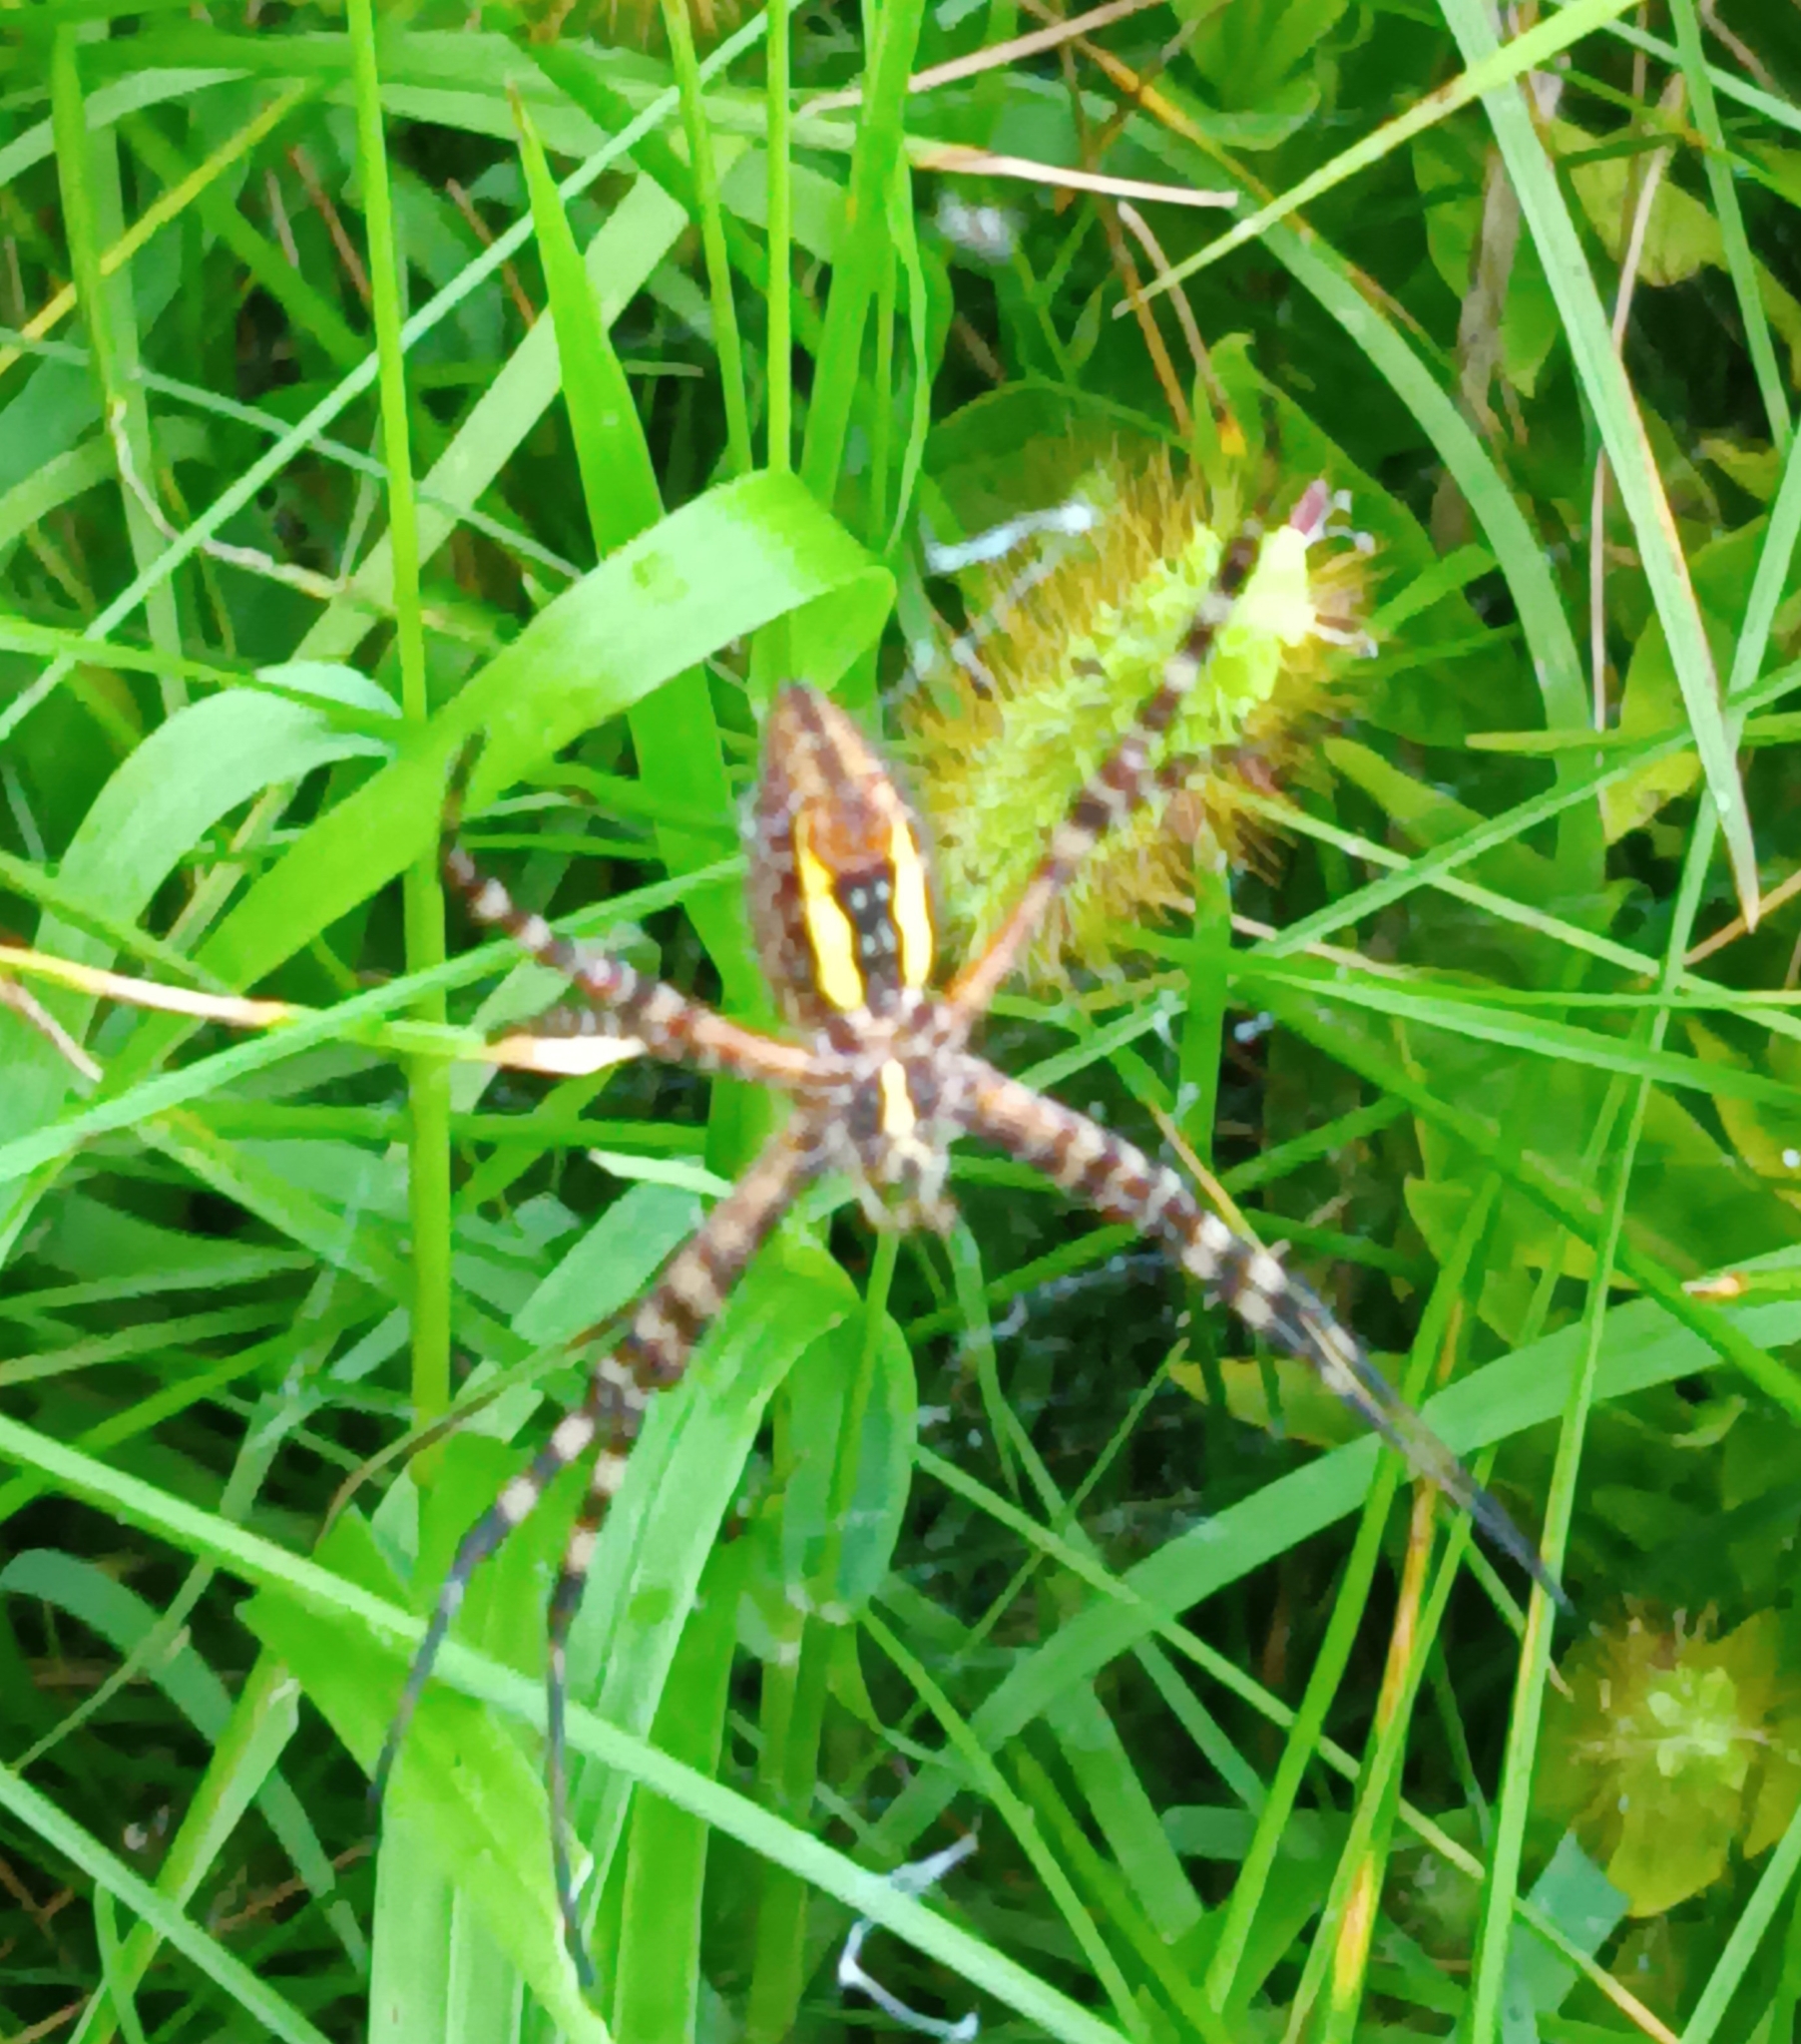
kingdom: Animalia
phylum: Arthropoda
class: Arachnida
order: Araneae
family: Araneidae
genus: Argiope
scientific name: Argiope trifasciata
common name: Banded garden spider
